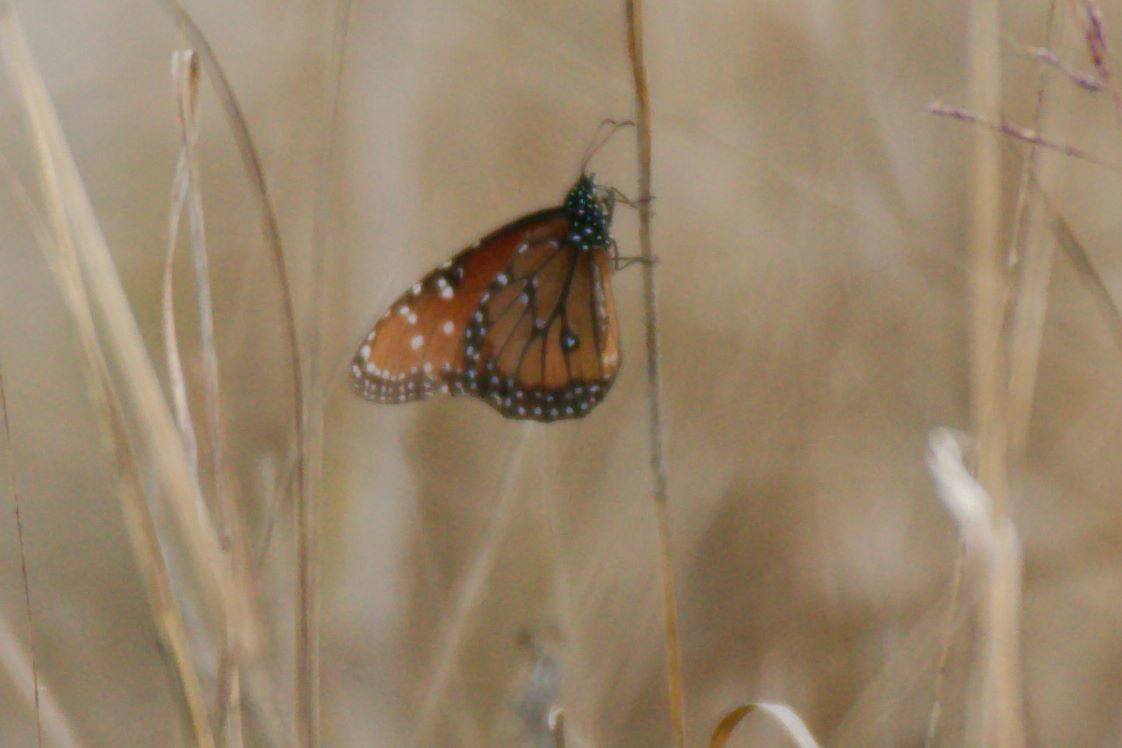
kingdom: Animalia
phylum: Arthropoda
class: Insecta
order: Lepidoptera
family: Nymphalidae
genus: Danaus
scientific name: Danaus gilippus
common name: Queen
